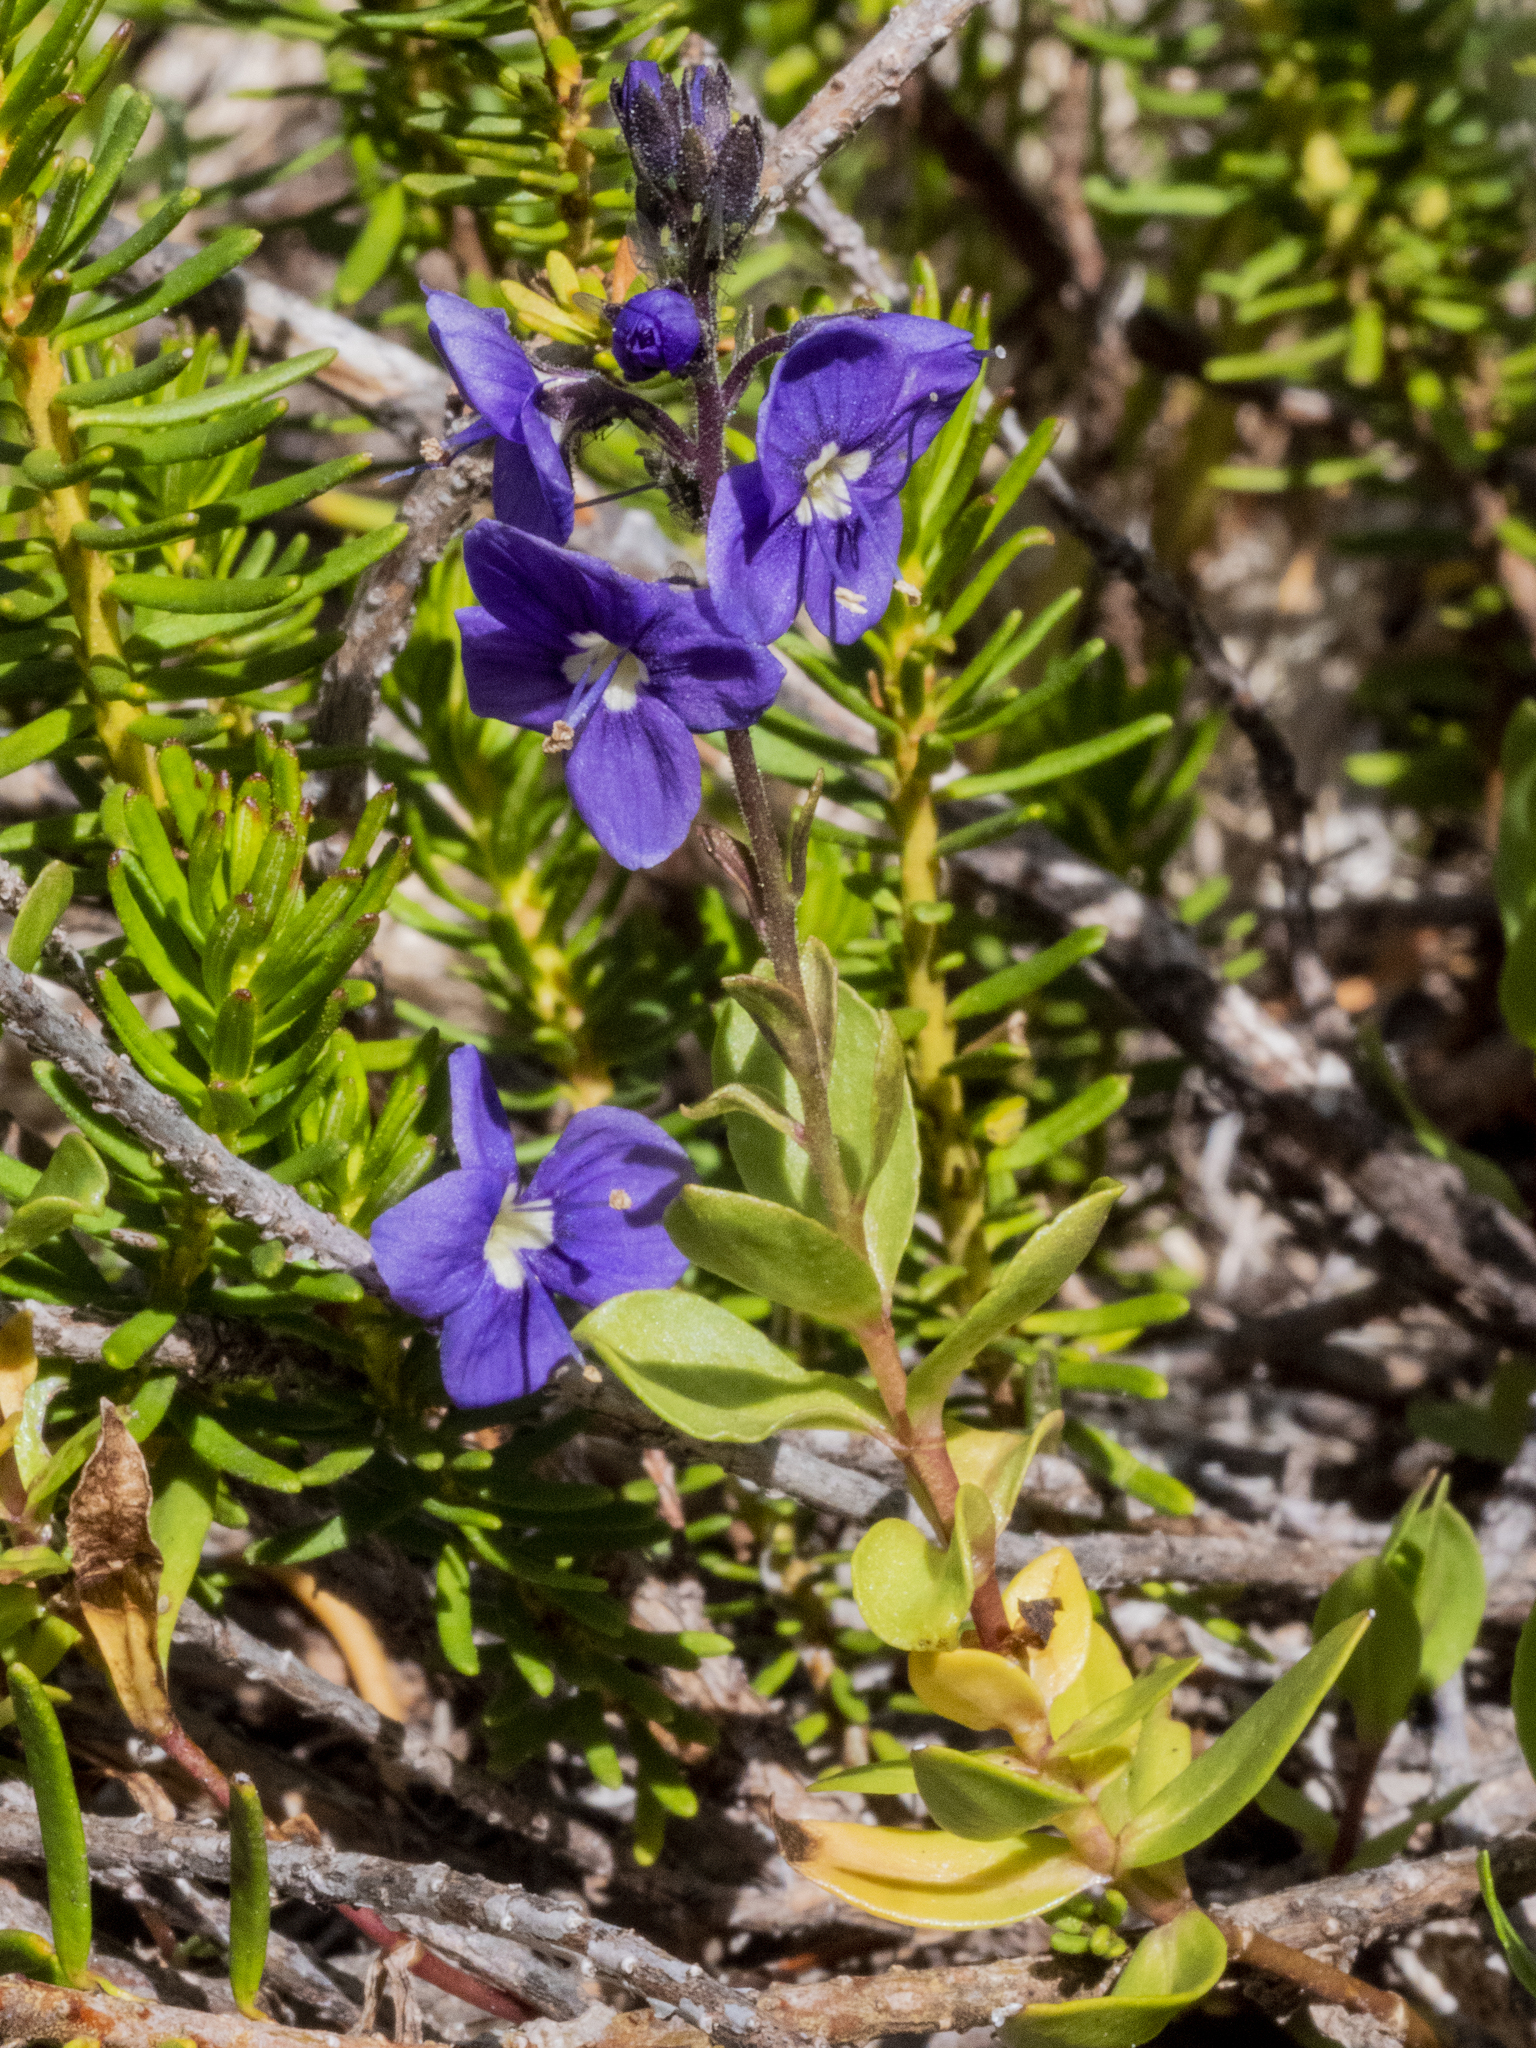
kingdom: Plantae
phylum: Tracheophyta
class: Magnoliopsida
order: Lamiales
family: Plantaginaceae
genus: Veronica
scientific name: Veronica cusickii
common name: Cusick's speedwell
